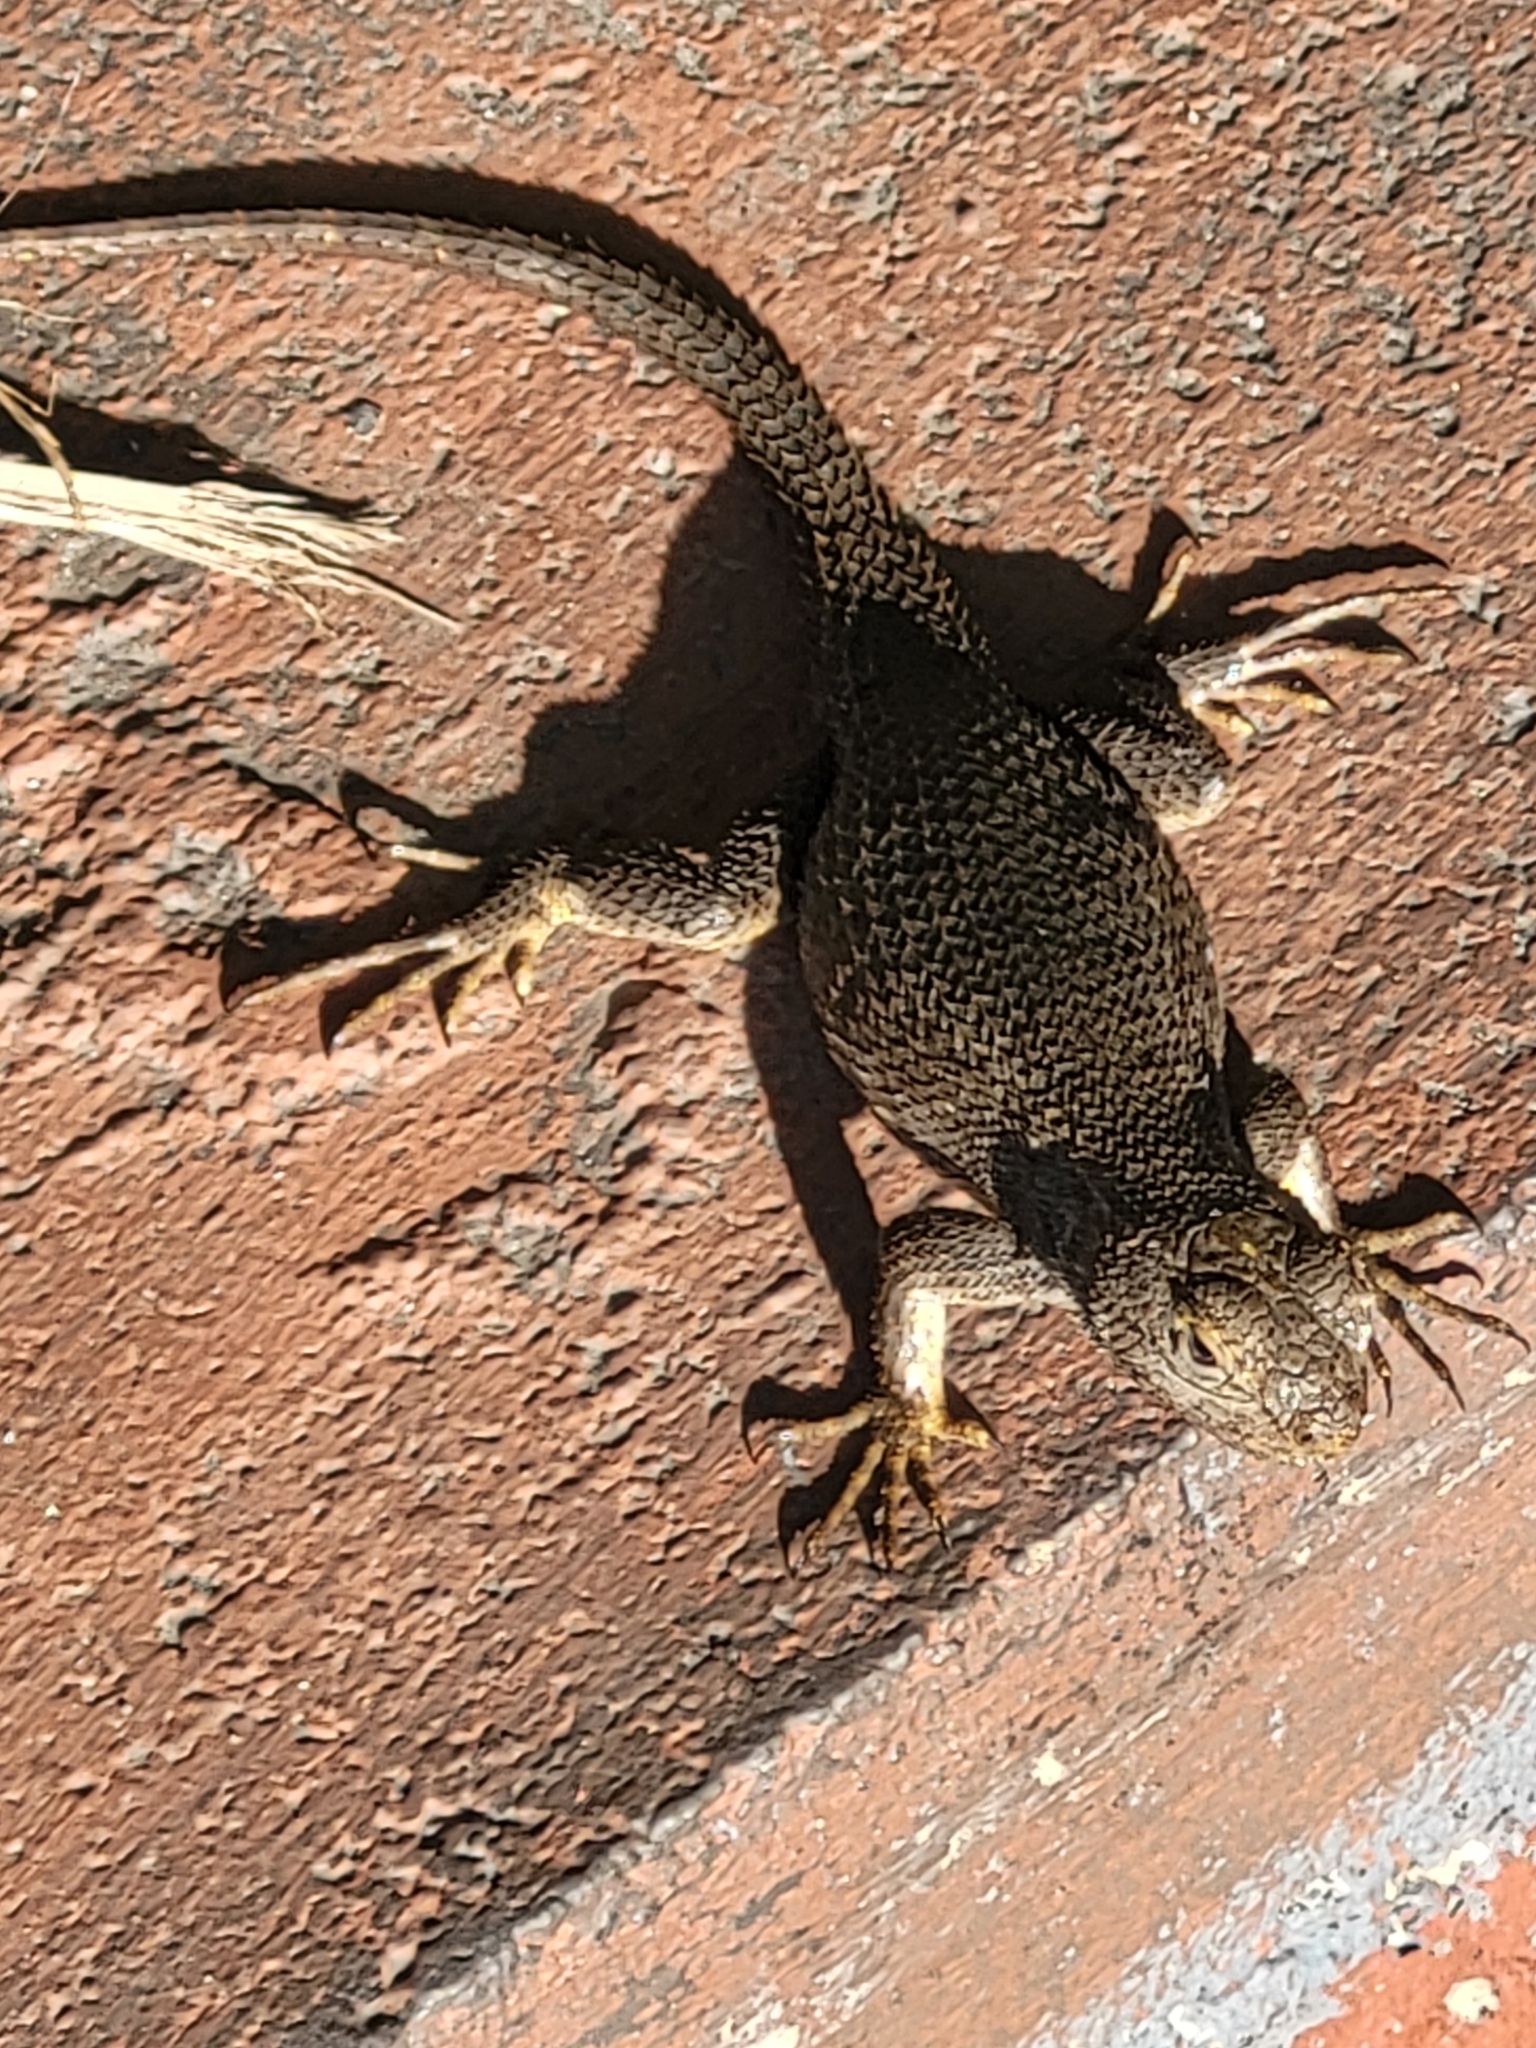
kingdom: Animalia
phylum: Chordata
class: Squamata
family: Phrynosomatidae
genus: Sceloporus
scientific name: Sceloporus occidentalis
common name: Western fence lizard
